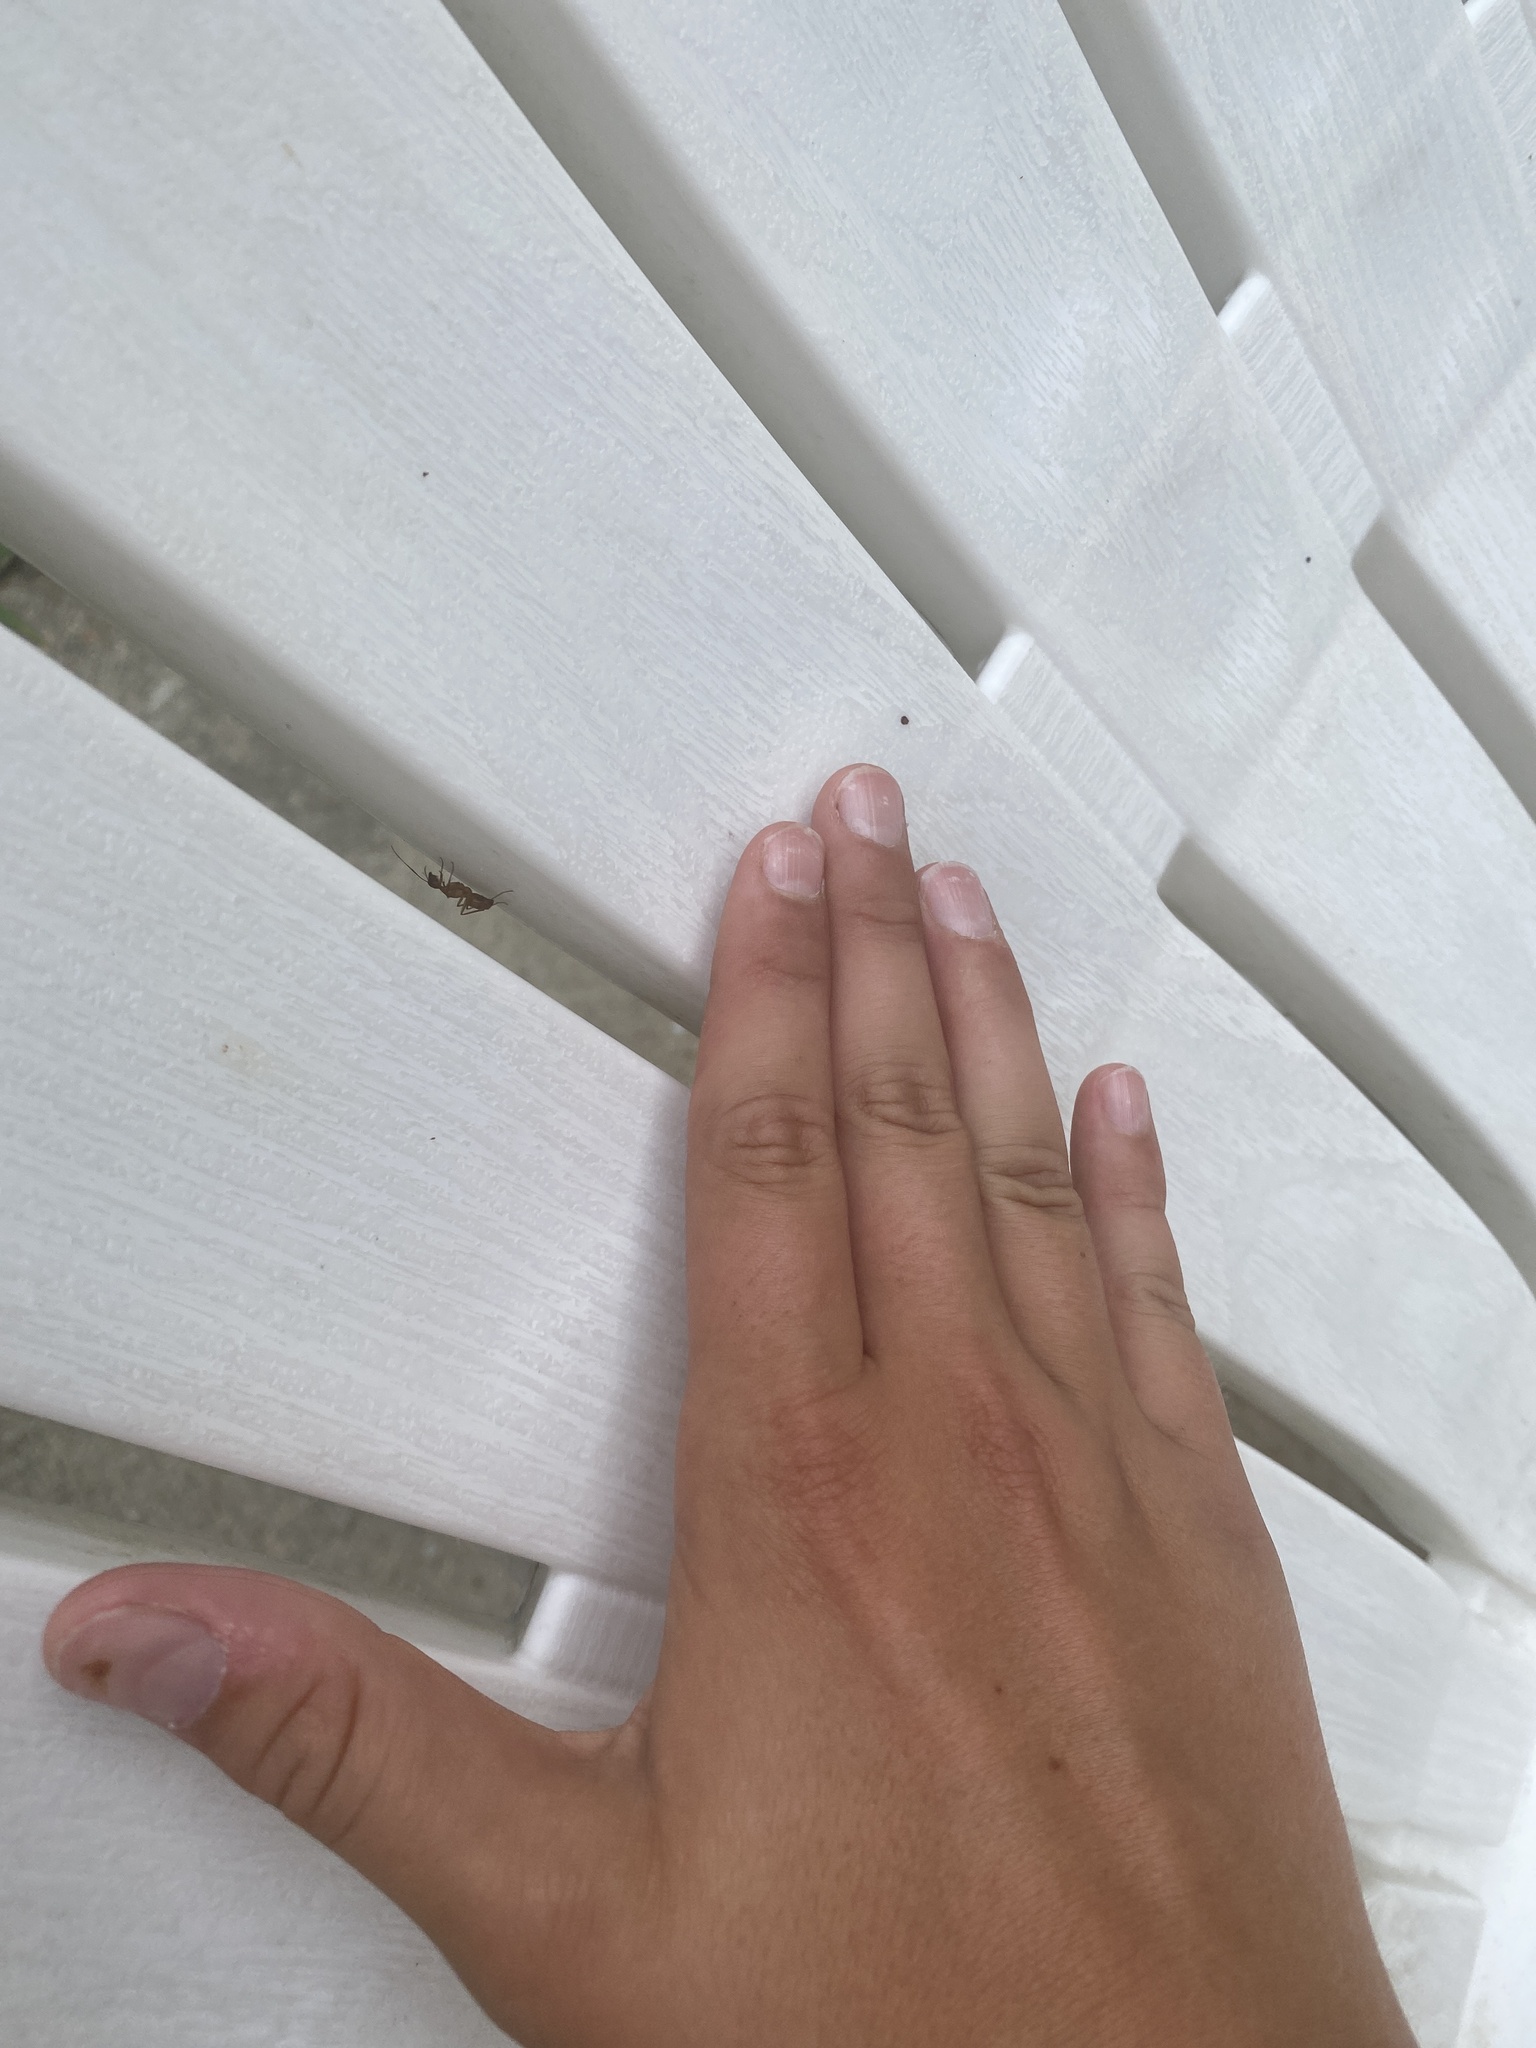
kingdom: Animalia
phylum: Arthropoda
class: Insecta
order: Hymenoptera
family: Formicidae
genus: Camponotus
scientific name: Camponotus castaneus
